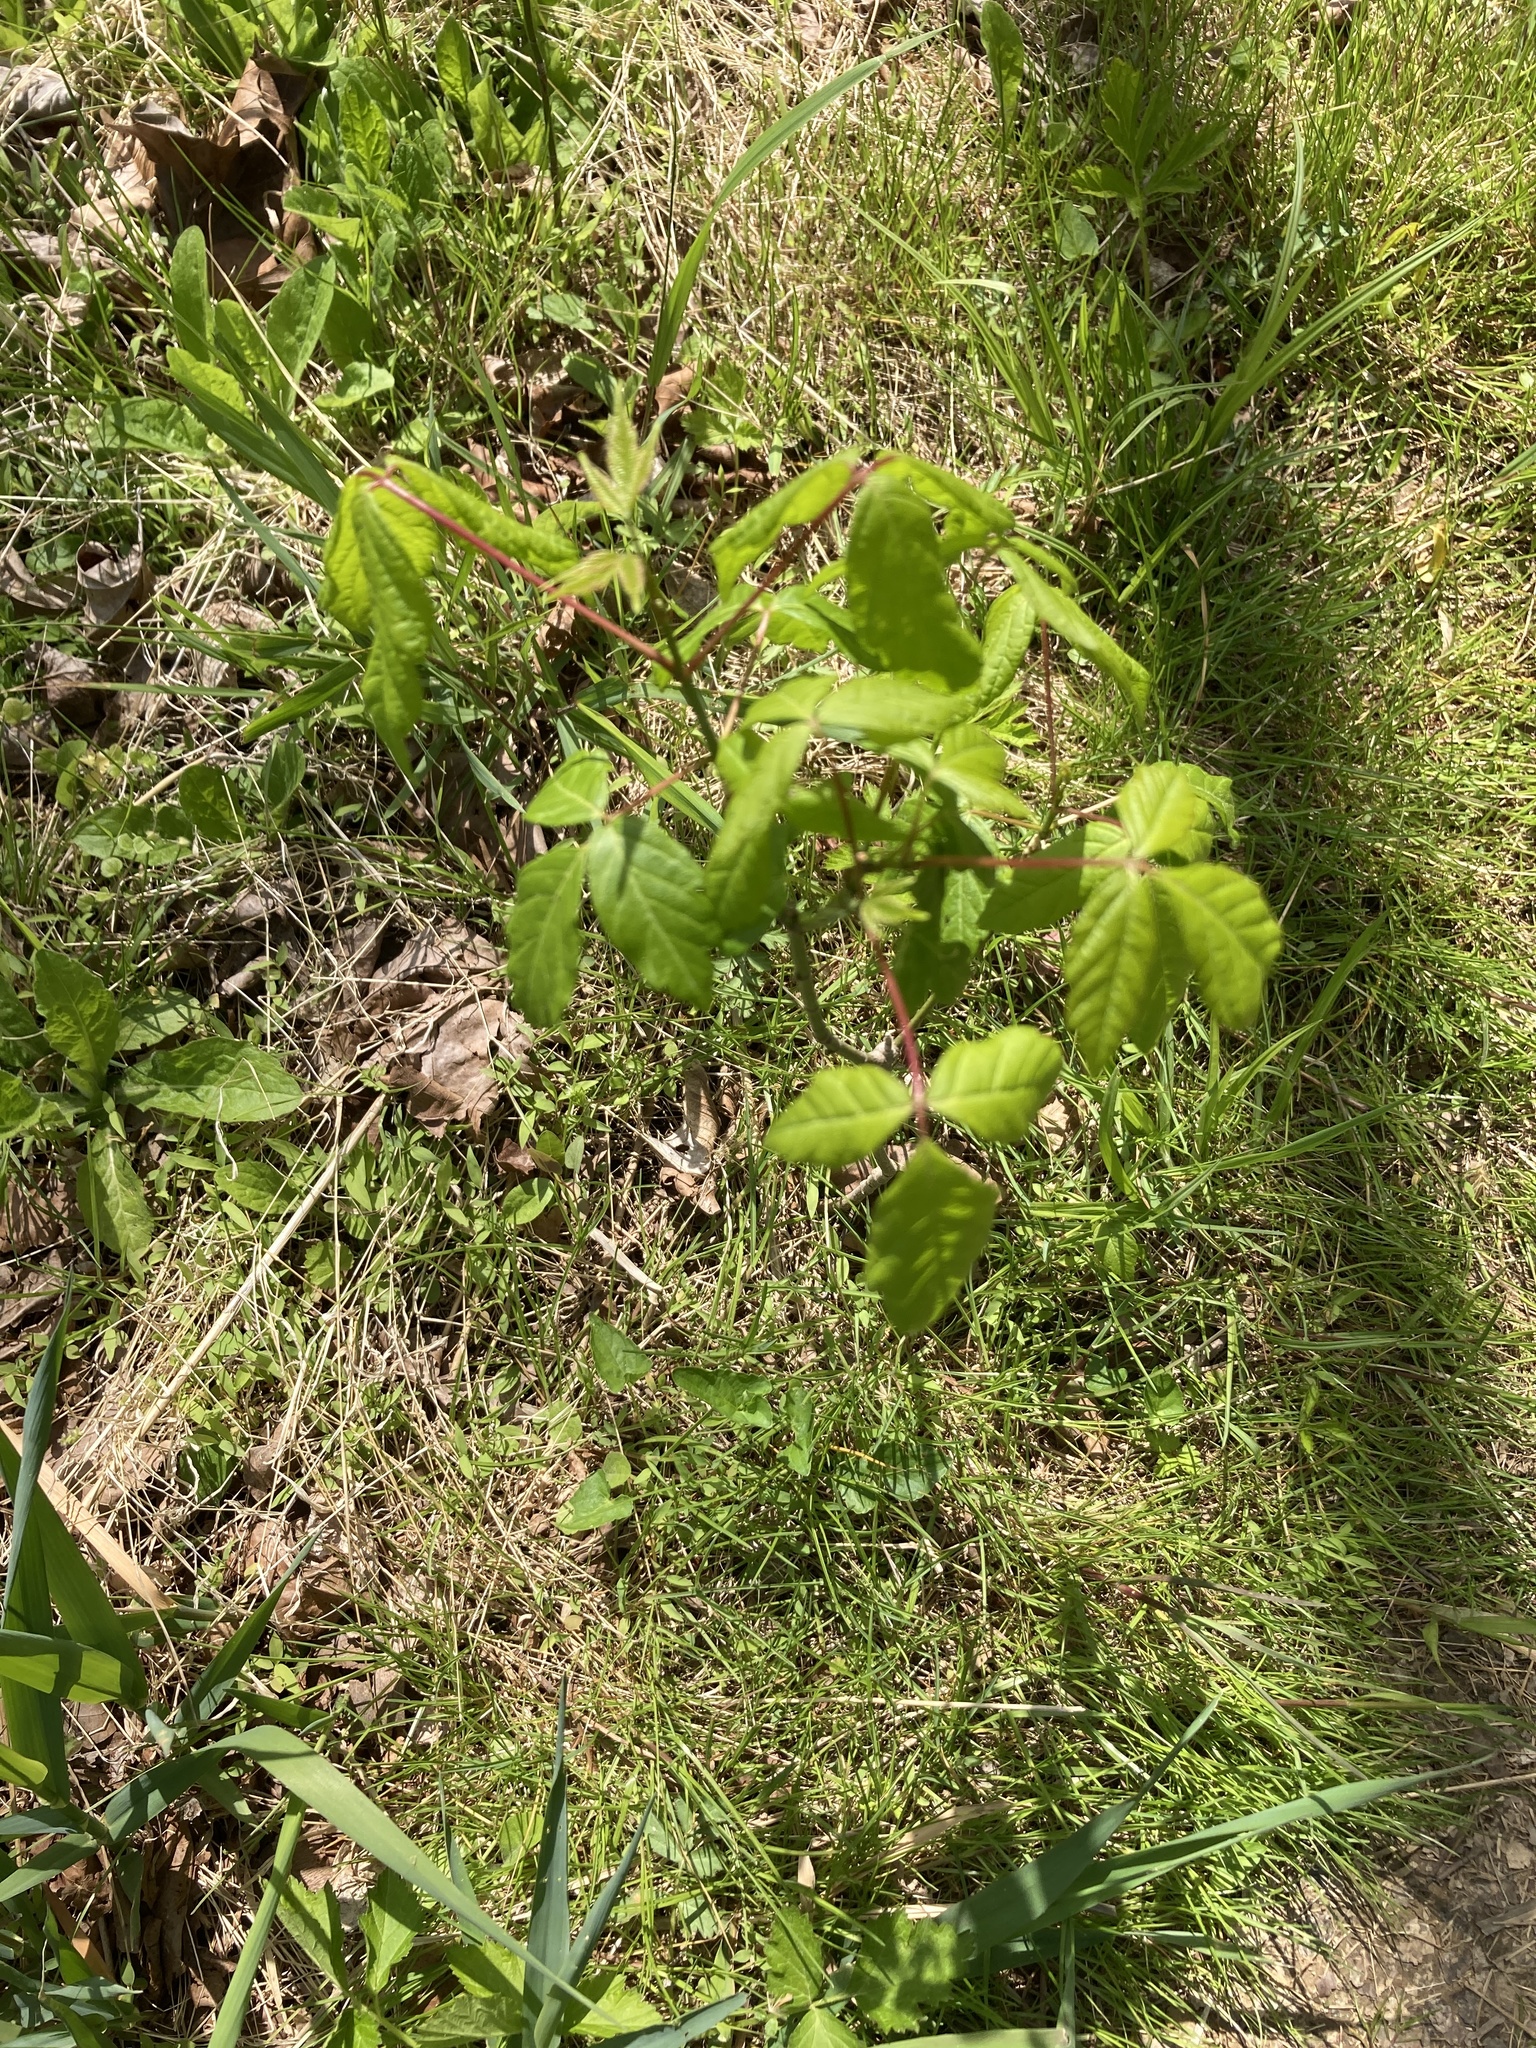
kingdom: Plantae
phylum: Tracheophyta
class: Magnoliopsida
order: Sapindales
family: Sapindaceae
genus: Acer
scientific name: Acer negundo
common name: Ashleaf maple
